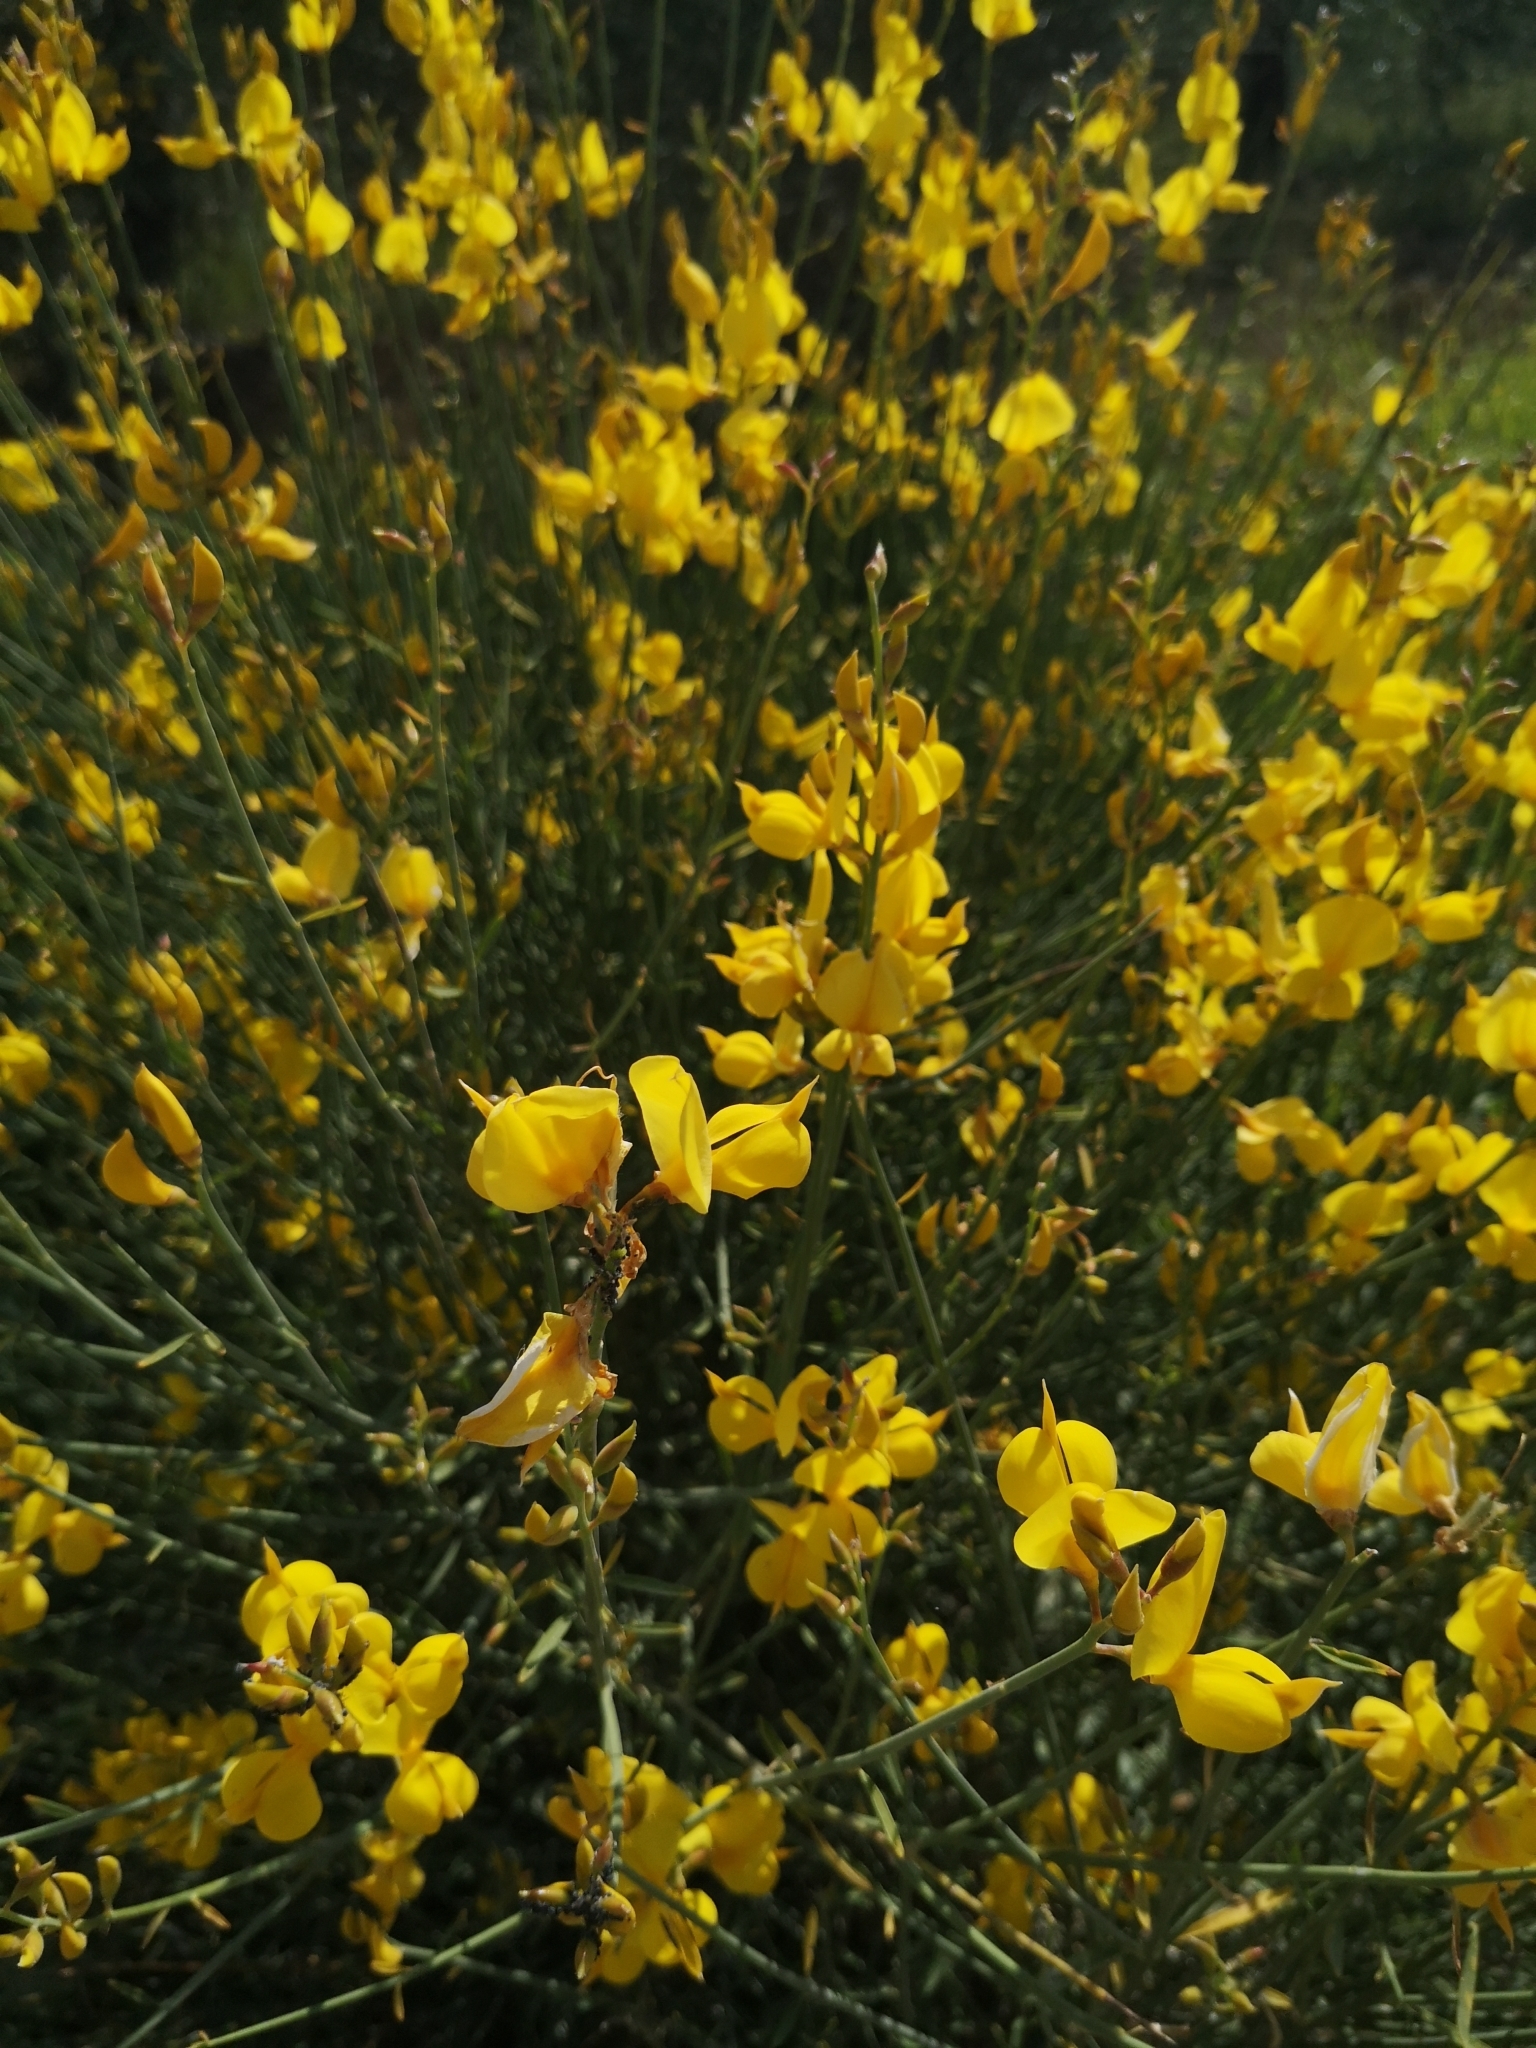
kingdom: Plantae
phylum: Tracheophyta
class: Magnoliopsida
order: Fabales
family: Fabaceae
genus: Spartium
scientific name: Spartium junceum
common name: Spanish broom
